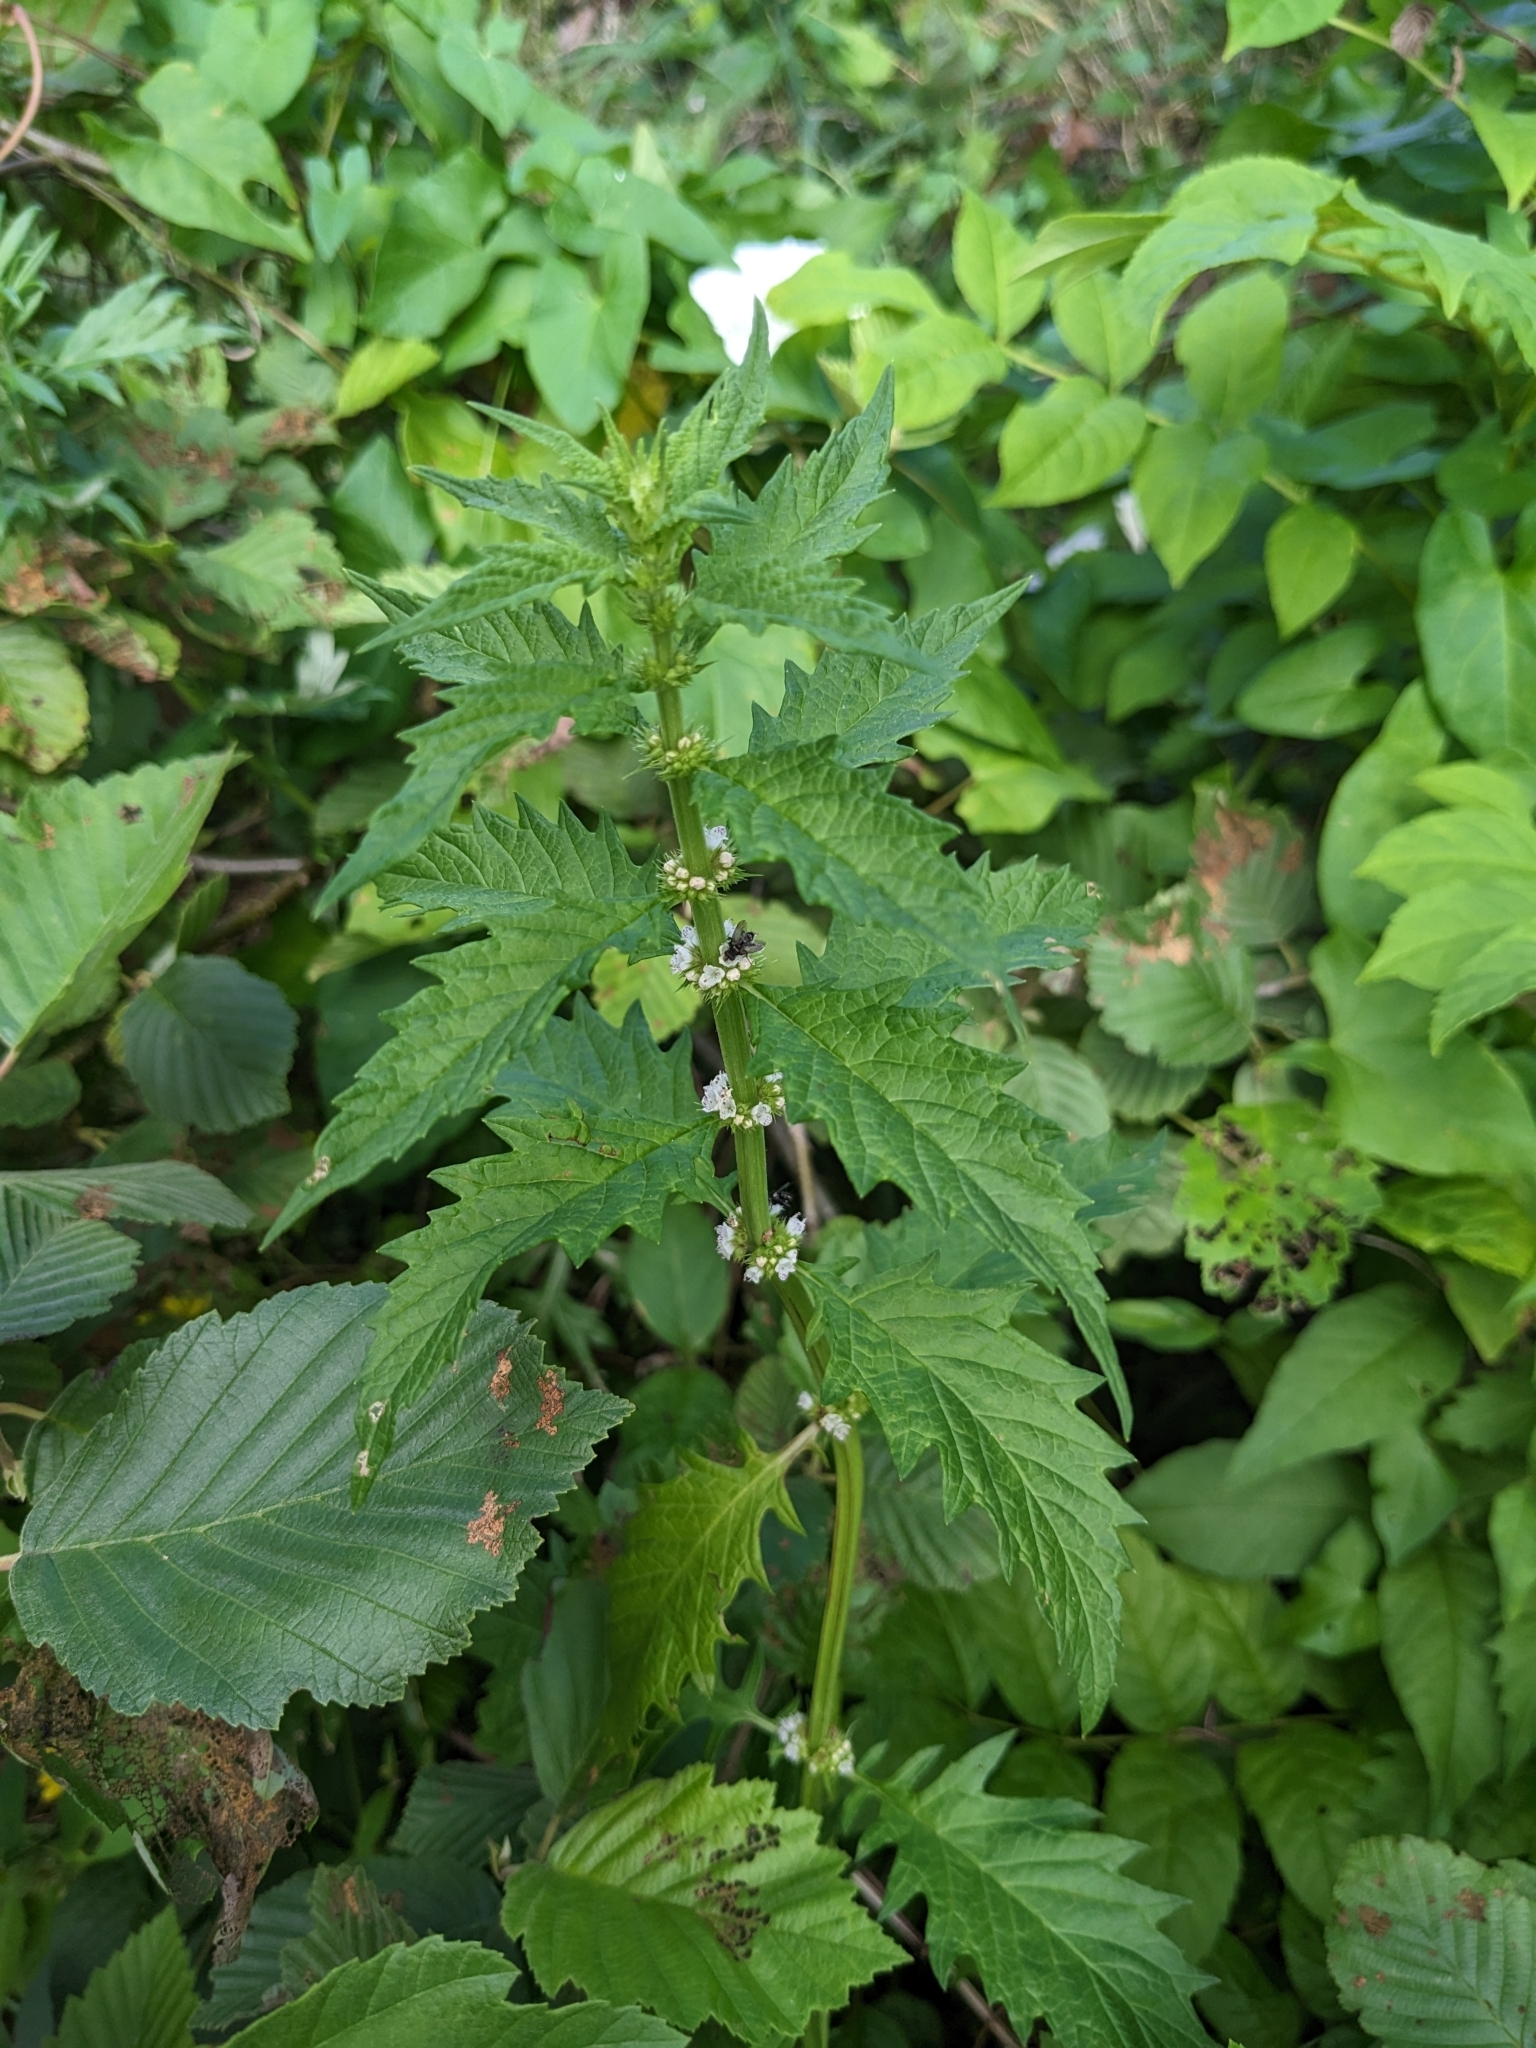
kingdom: Plantae
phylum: Tracheophyta
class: Magnoliopsida
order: Lamiales
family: Lamiaceae
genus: Lycopus
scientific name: Lycopus europaeus
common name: European bugleweed
